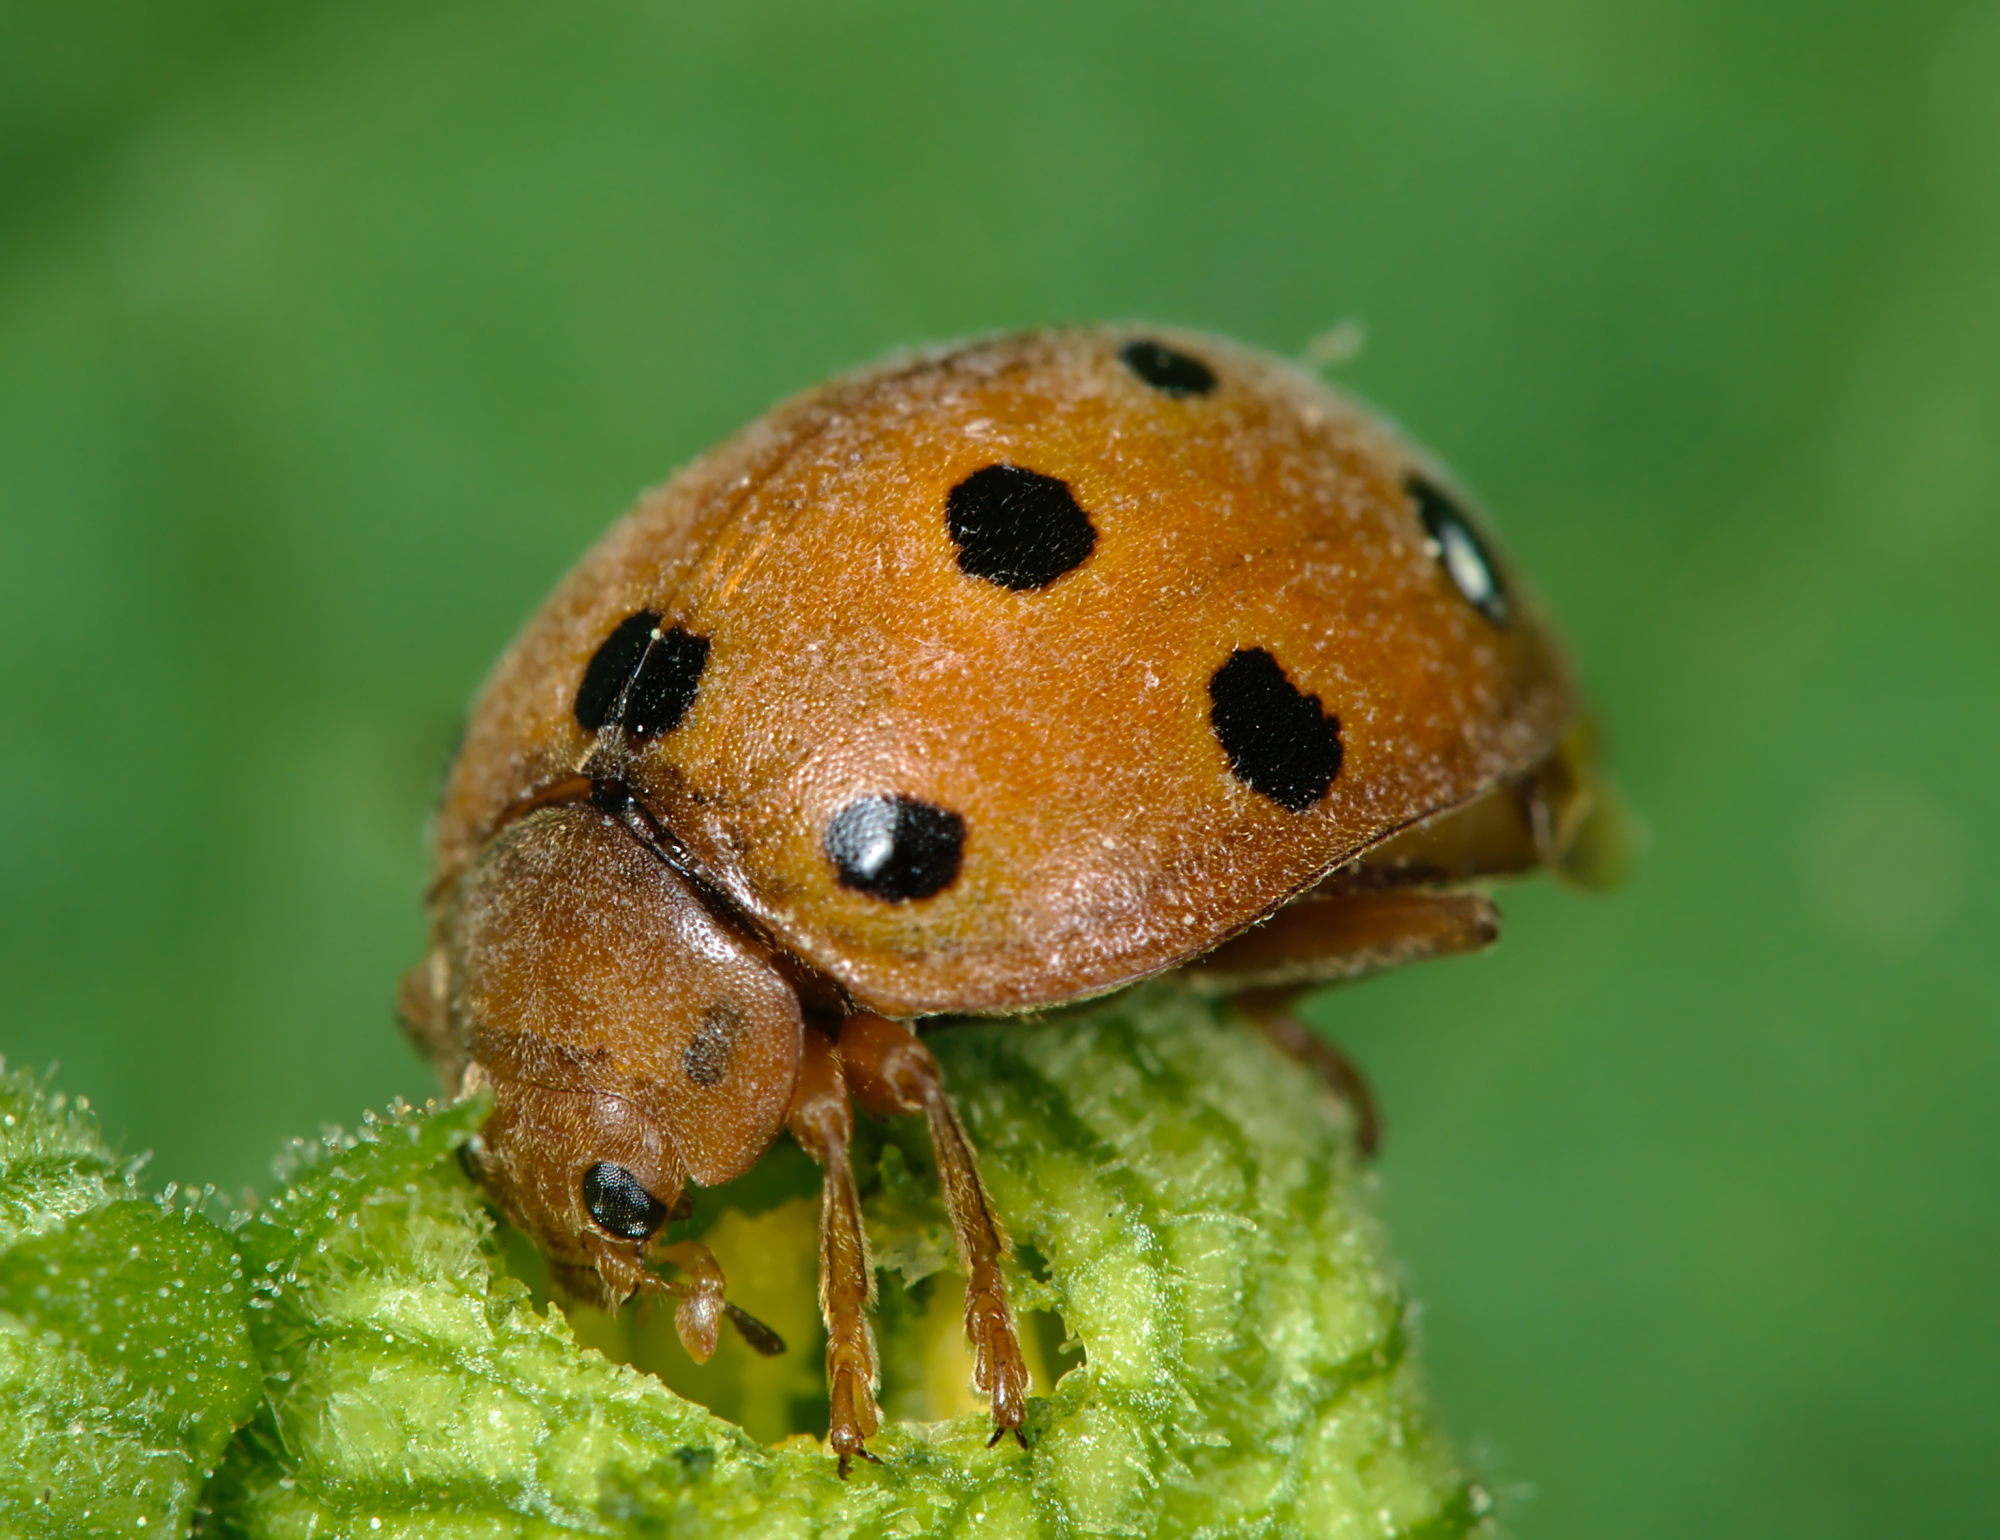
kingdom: Animalia
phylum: Arthropoda
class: Insecta
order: Coleoptera
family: Coccinellidae
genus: Henosepilachna
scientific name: Henosepilachna argus
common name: Bryony ladybird
